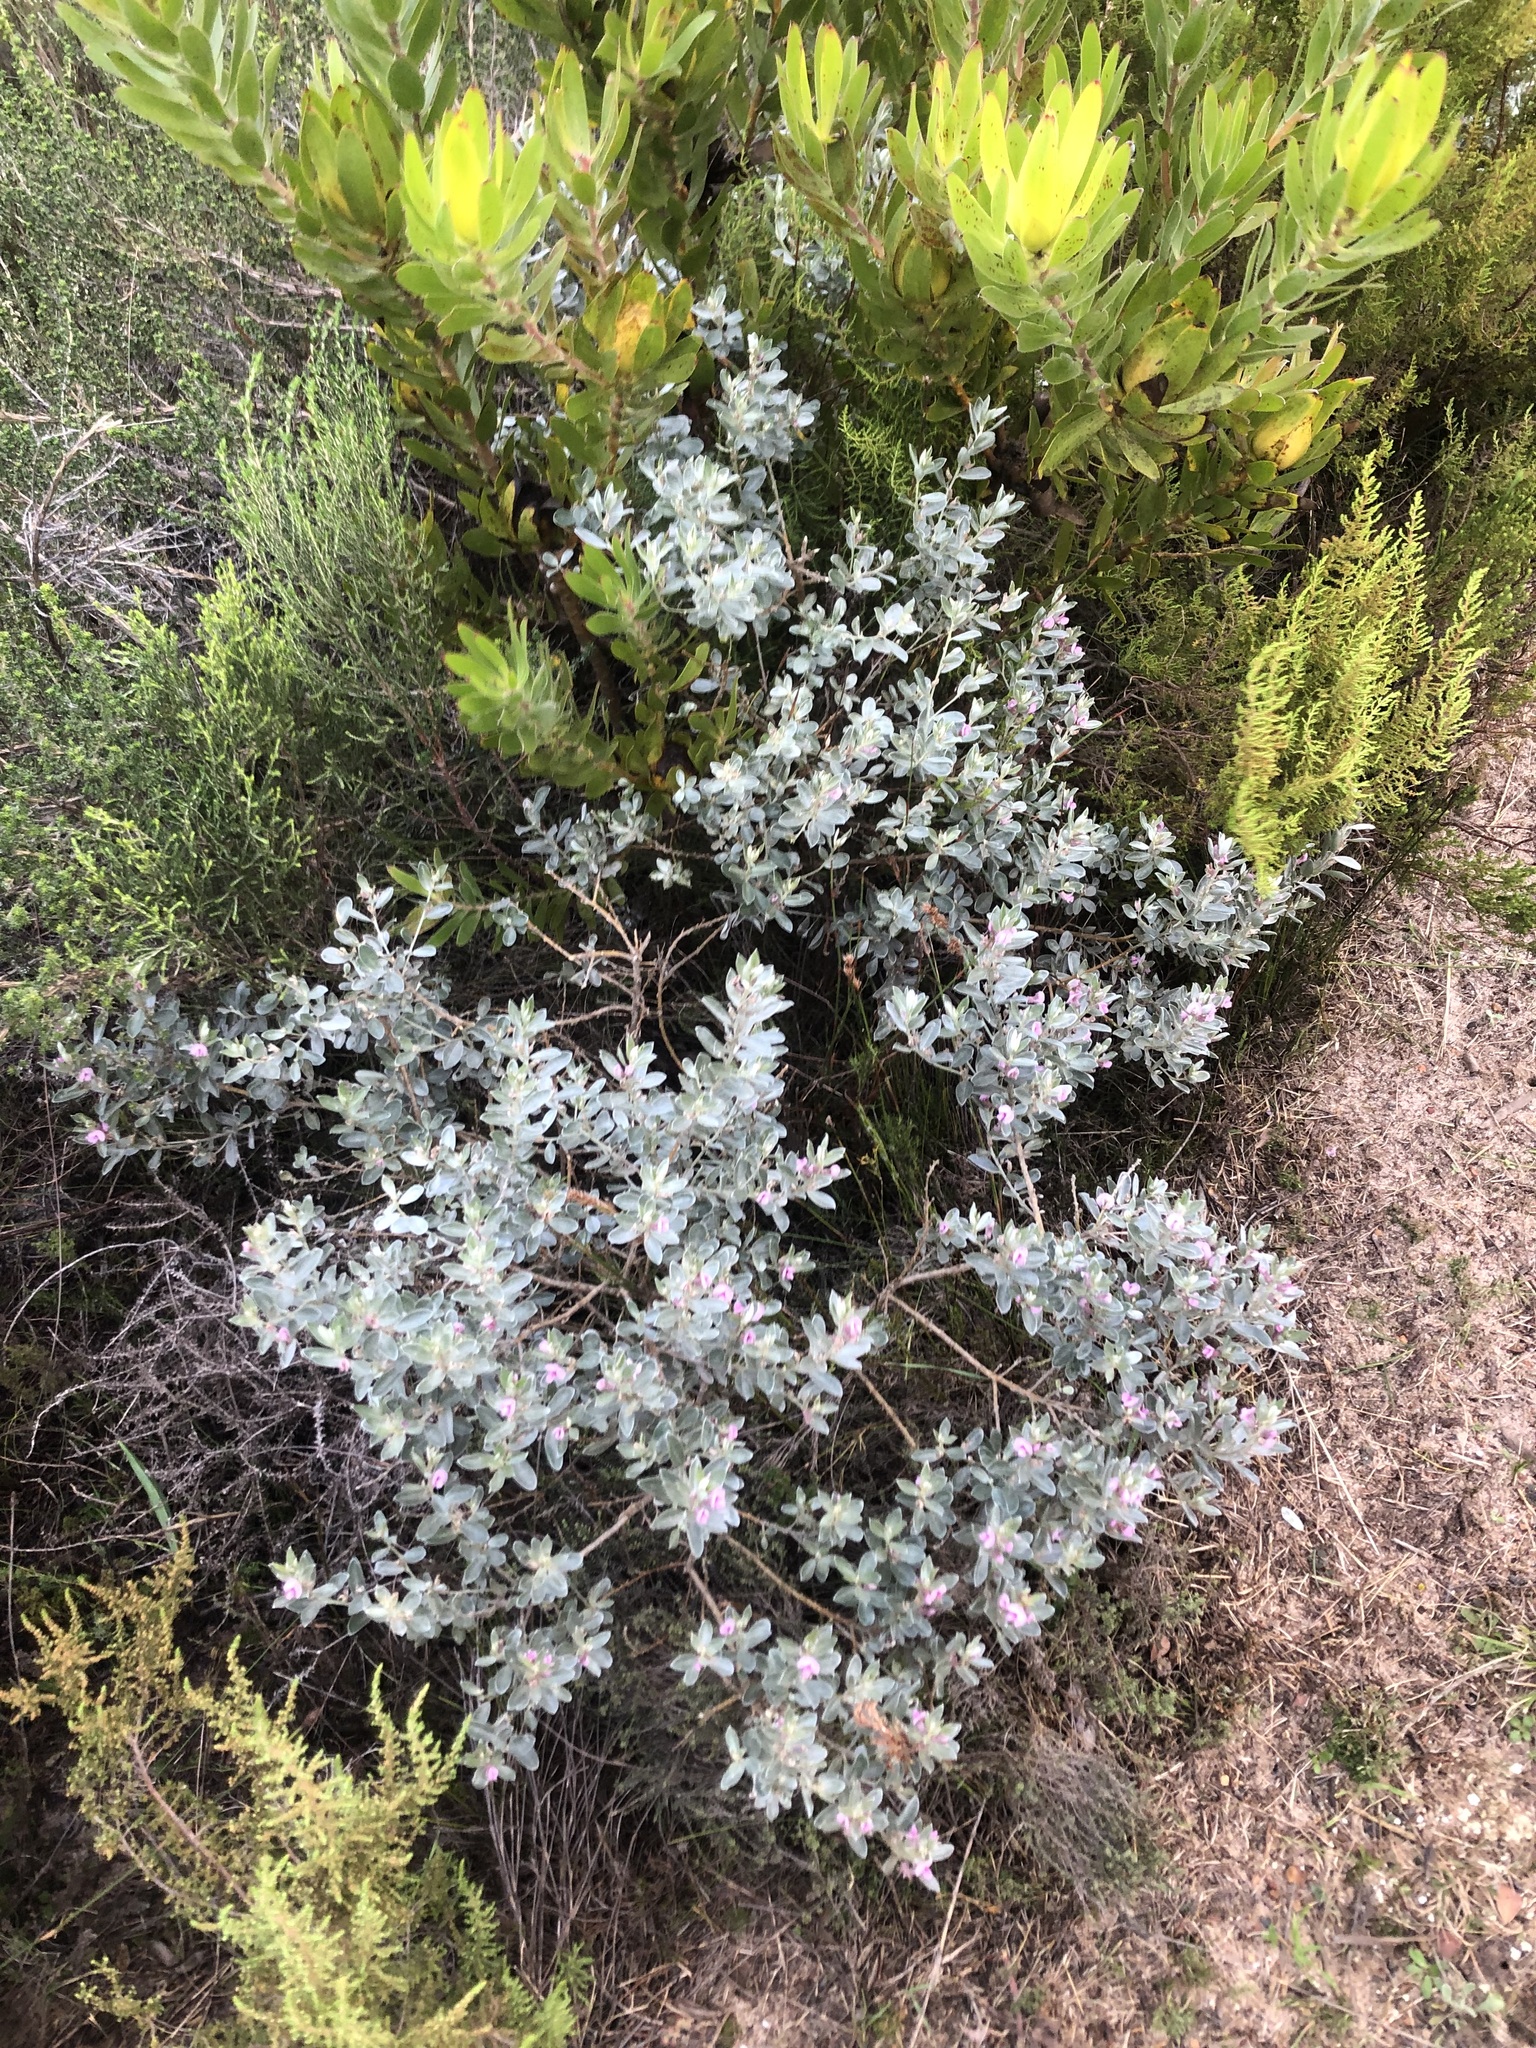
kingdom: Plantae
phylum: Tracheophyta
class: Magnoliopsida
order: Fabales
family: Fabaceae
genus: Podalyria
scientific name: Podalyria sericea
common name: Silver podalyria
